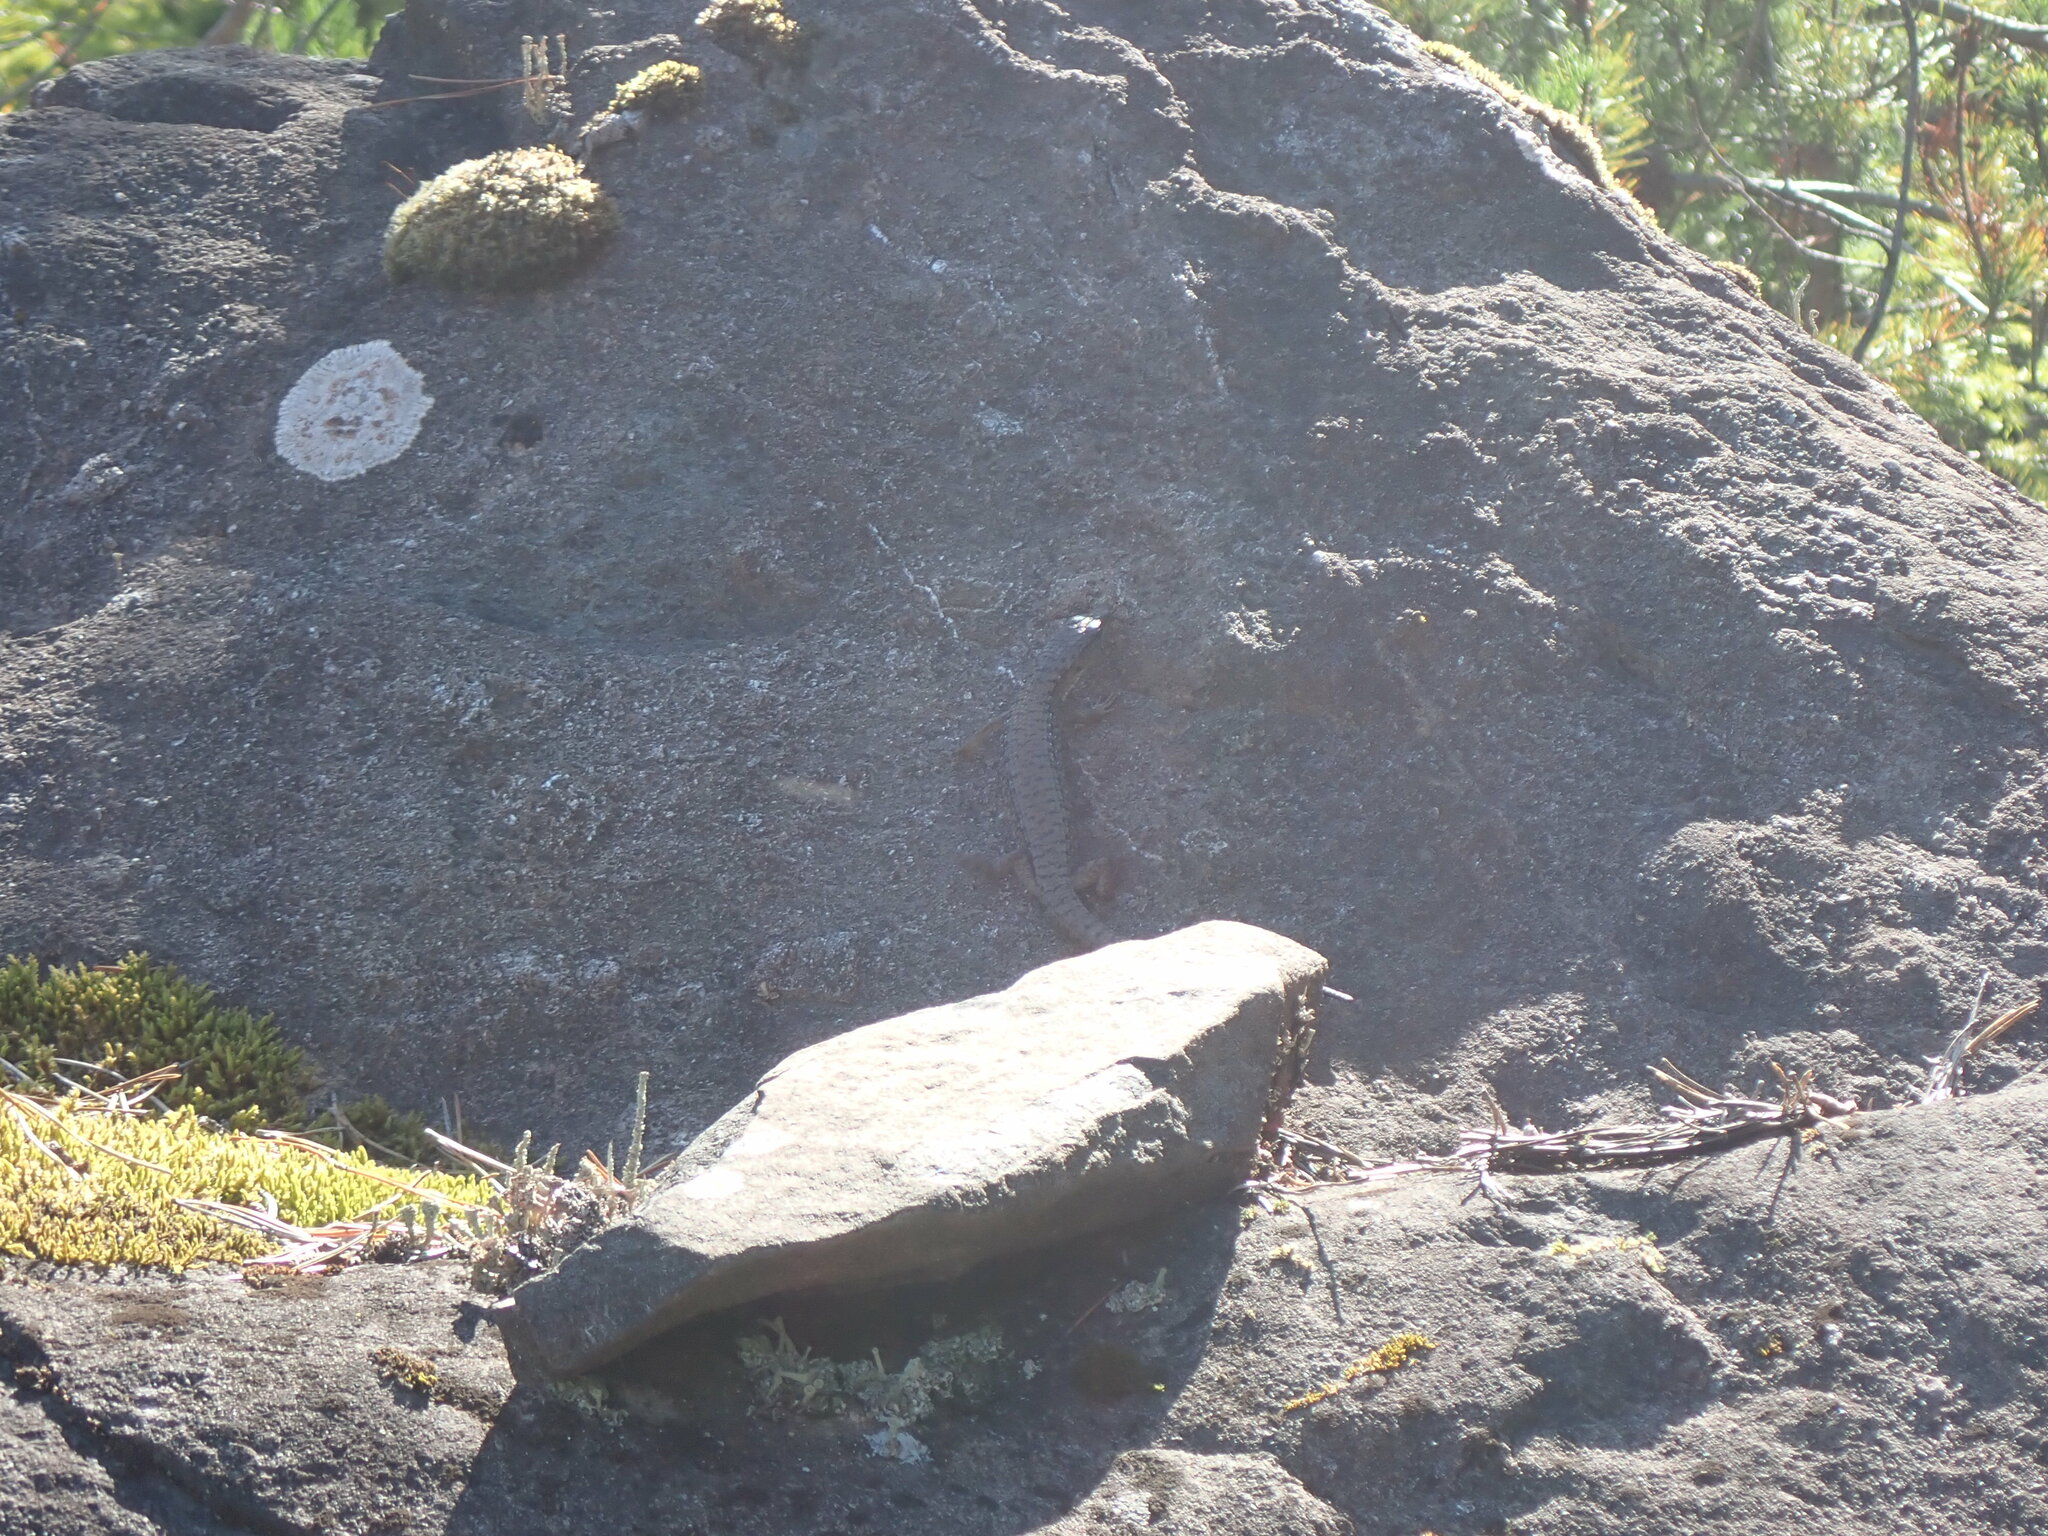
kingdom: Animalia
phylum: Chordata
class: Squamata
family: Anguidae
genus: Elgaria
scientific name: Elgaria coerulea
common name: Northern alligator lizard
